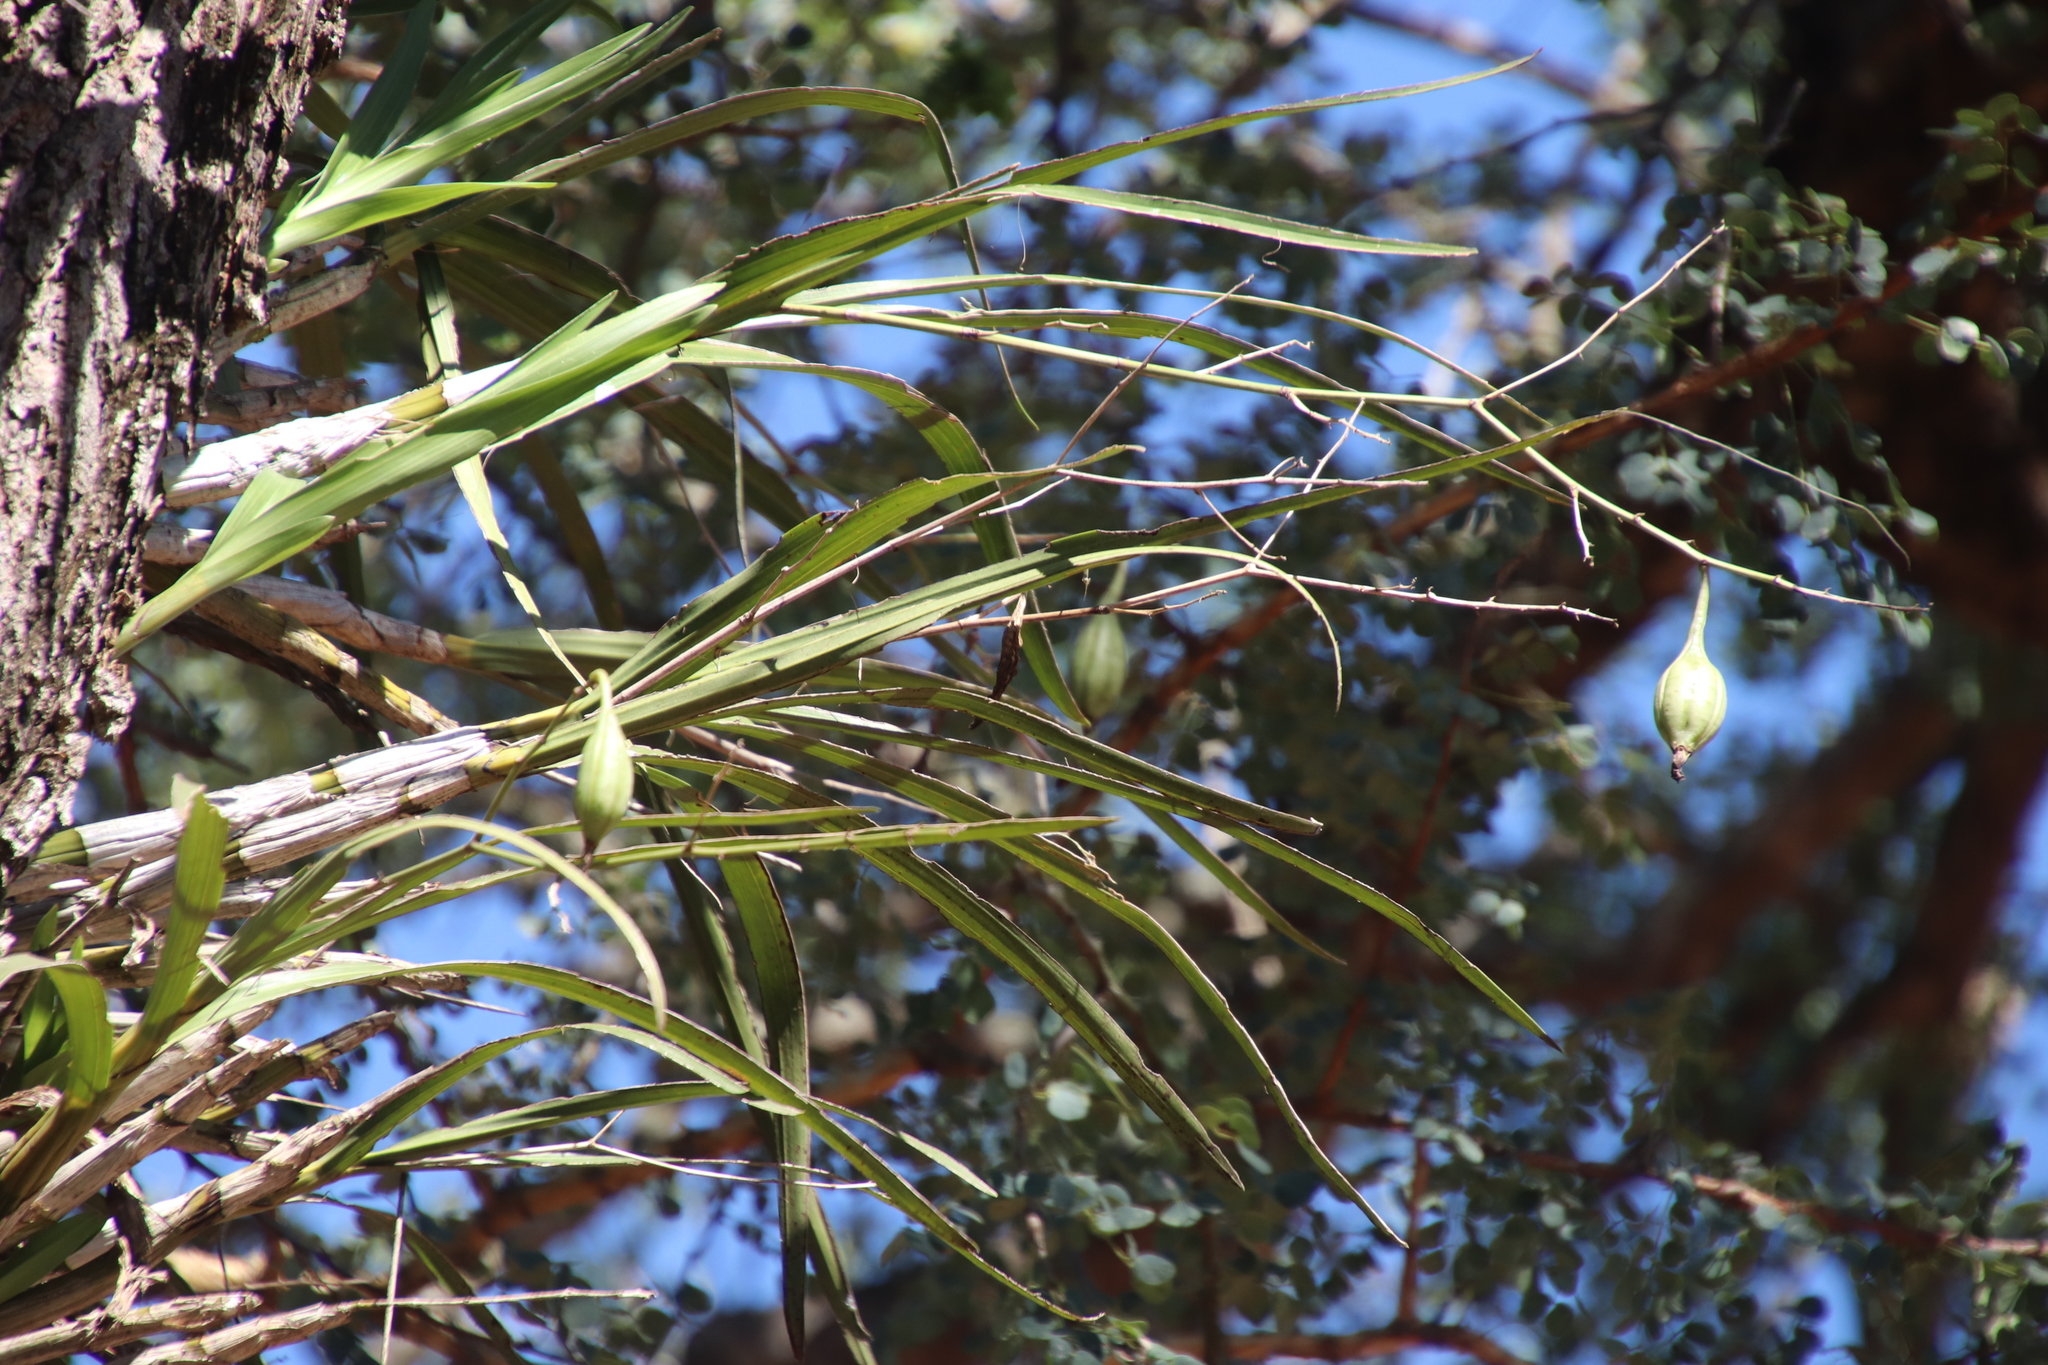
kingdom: Plantae
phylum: Tracheophyta
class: Liliopsida
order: Asparagales
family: Orchidaceae
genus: Ansellia
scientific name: Ansellia africana
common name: African ansellia
